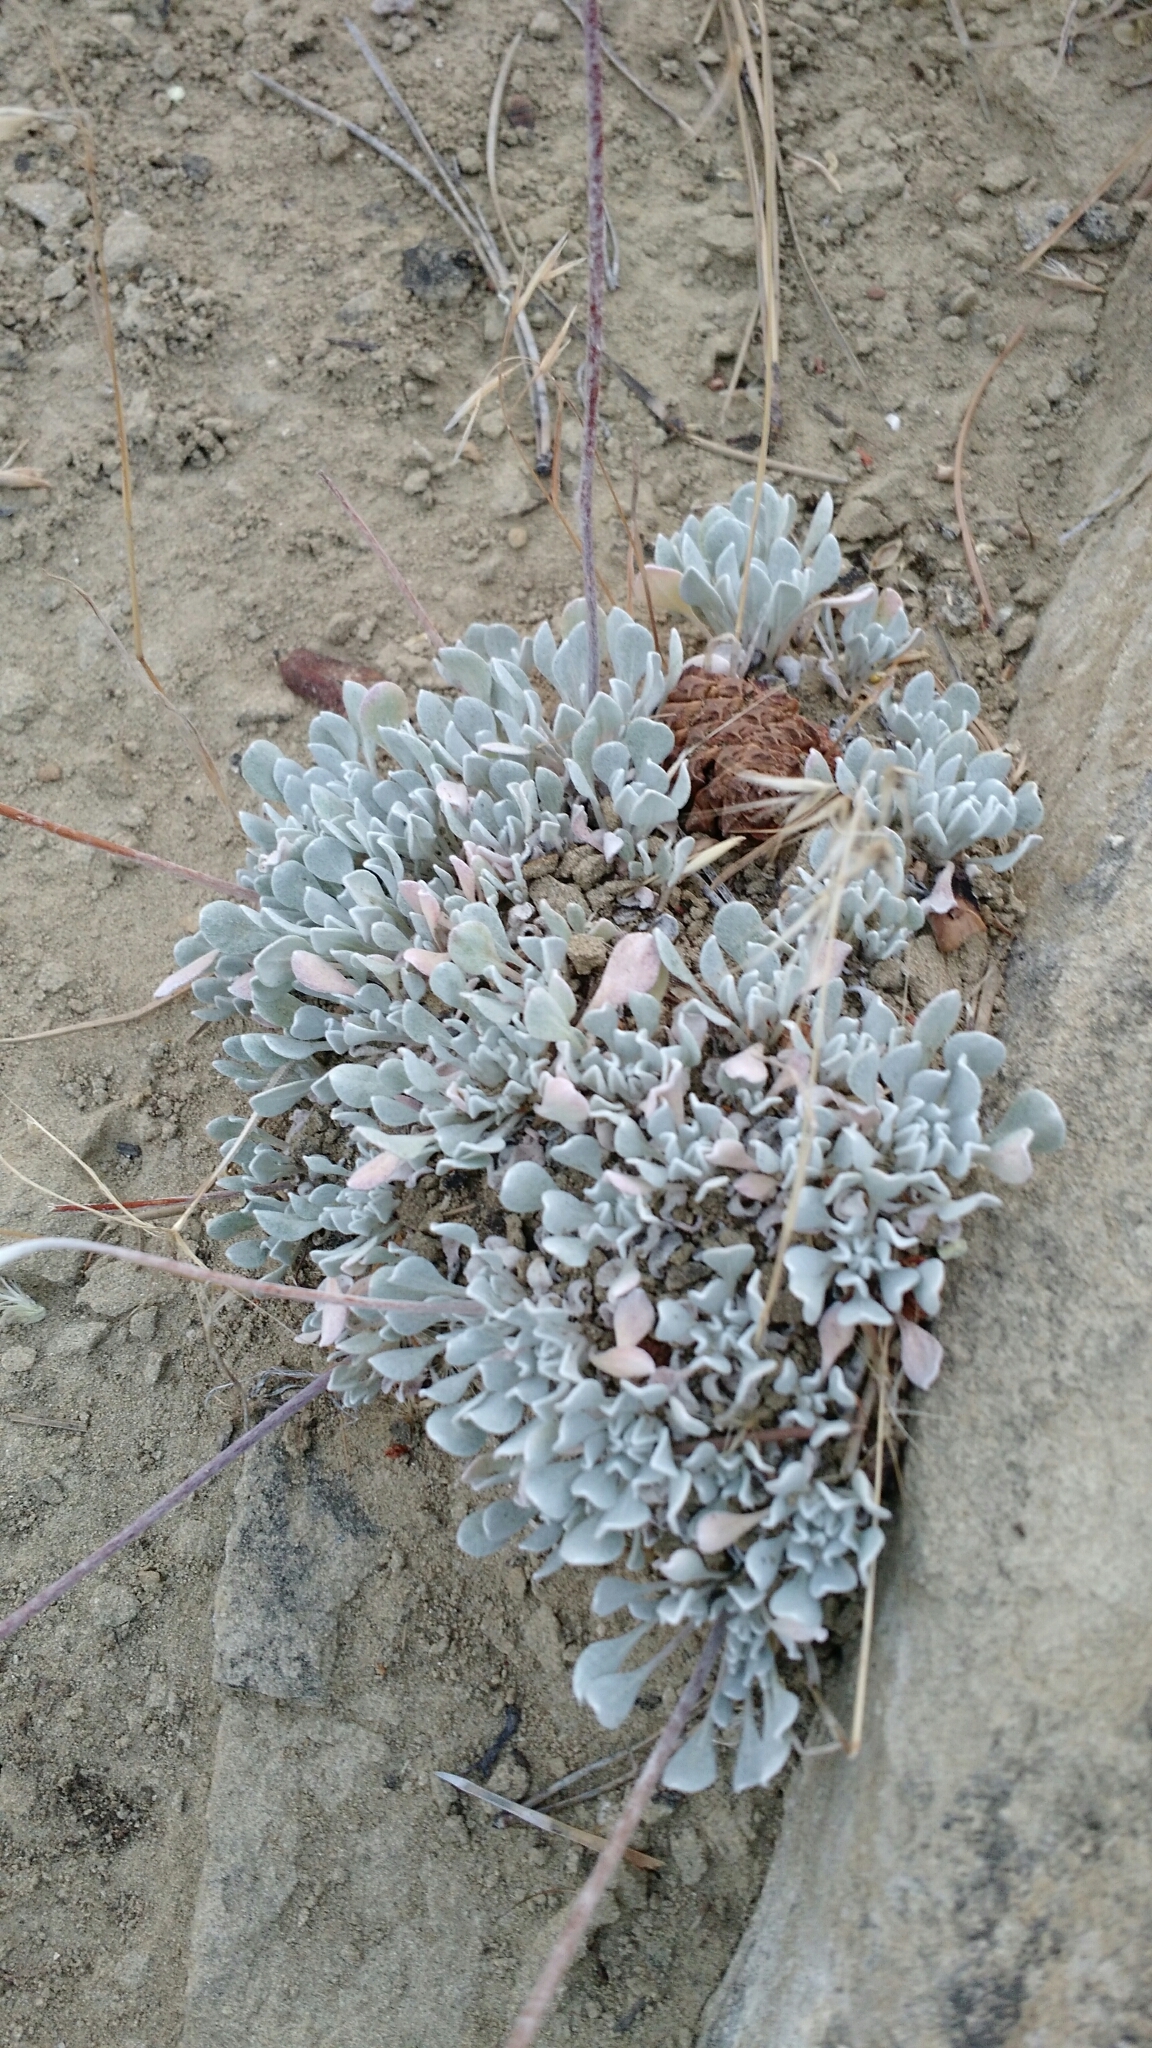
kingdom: Plantae
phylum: Tracheophyta
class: Magnoliopsida
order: Caryophyllales
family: Polygonaceae
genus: Eriogonum
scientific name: Eriogonum ovalifolium
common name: Cushion buckwheat
